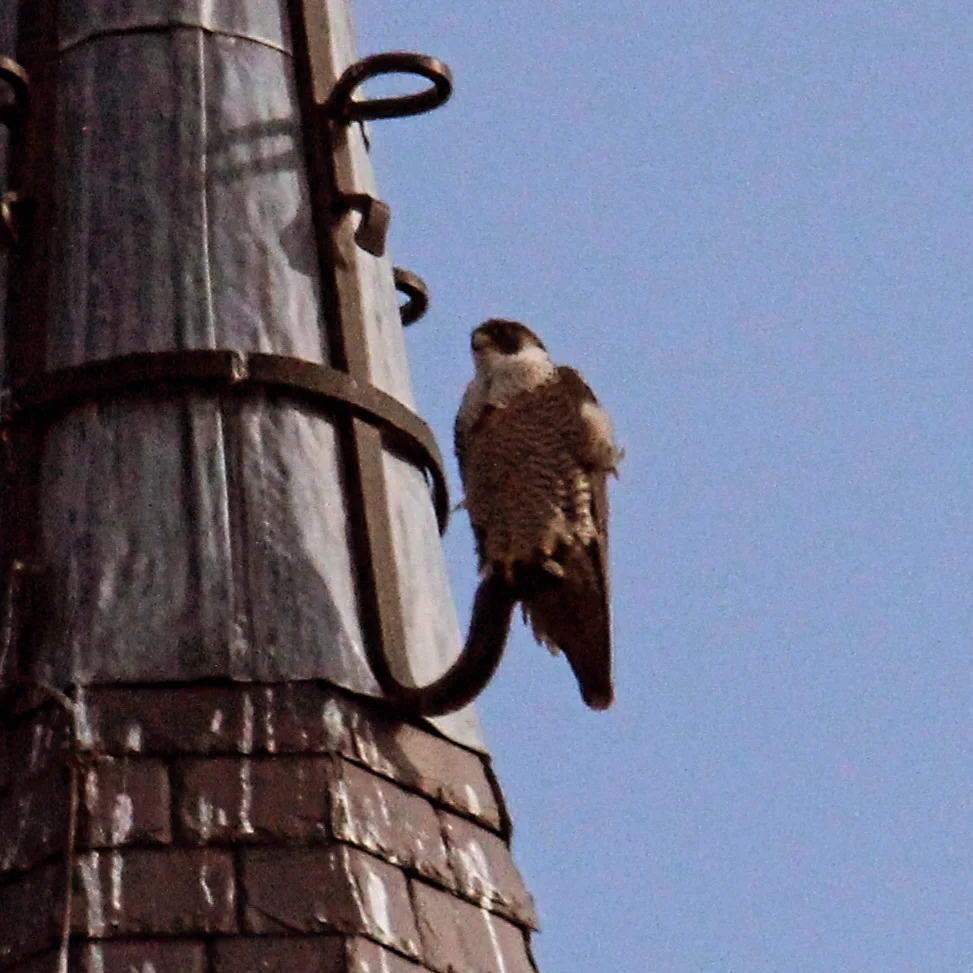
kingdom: Animalia
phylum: Chordata
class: Aves
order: Falconiformes
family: Falconidae
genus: Falco
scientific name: Falco peregrinus
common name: Peregrine falcon
